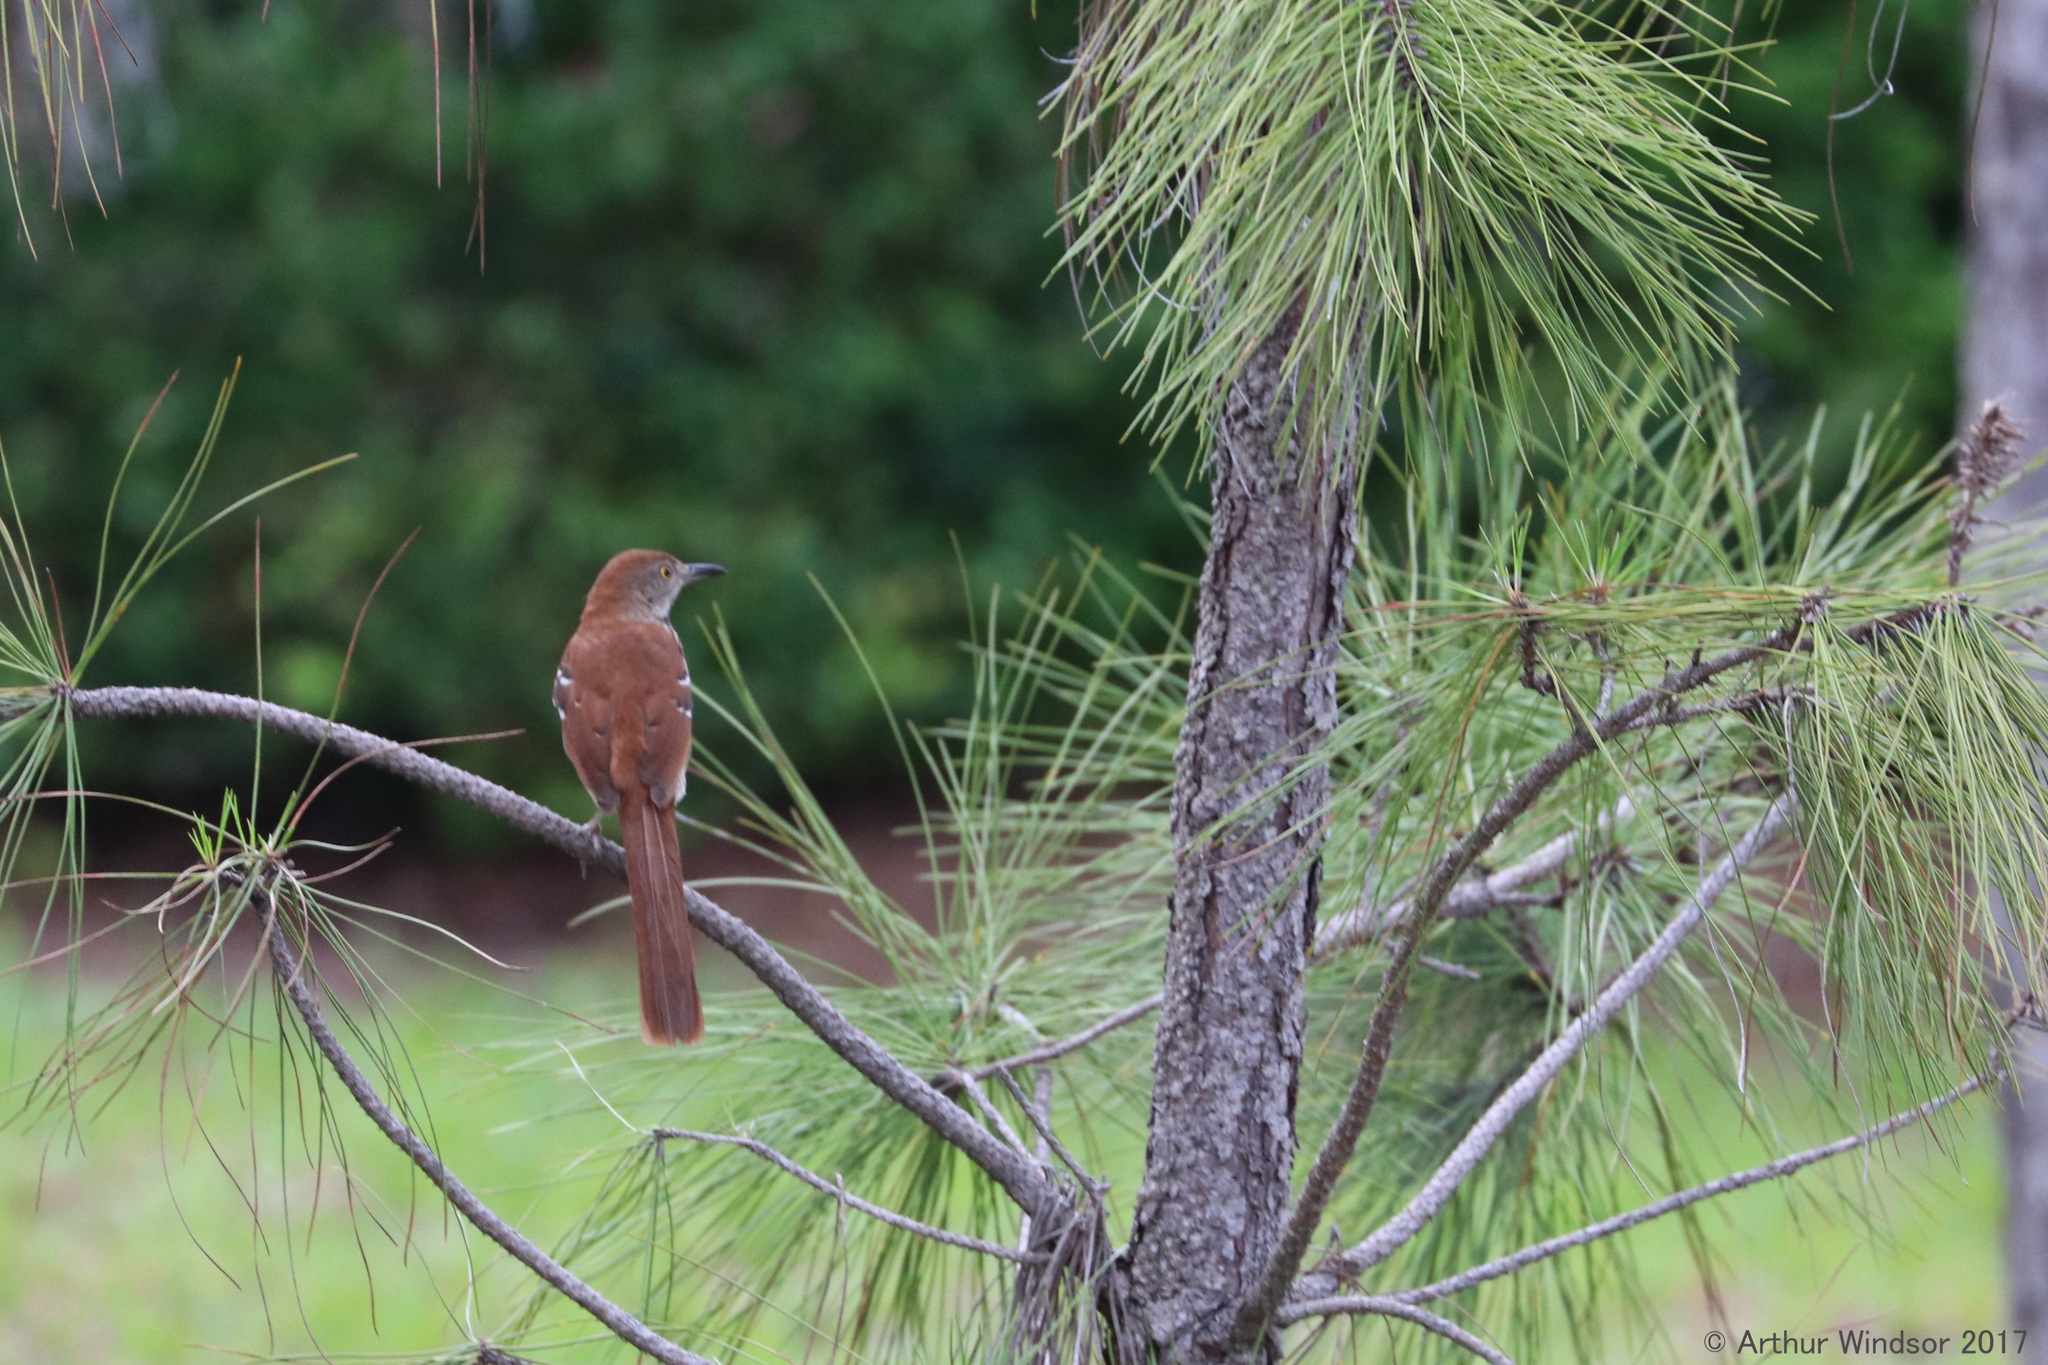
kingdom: Animalia
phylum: Chordata
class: Aves
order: Passeriformes
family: Mimidae
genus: Toxostoma
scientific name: Toxostoma rufum
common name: Brown thrasher
